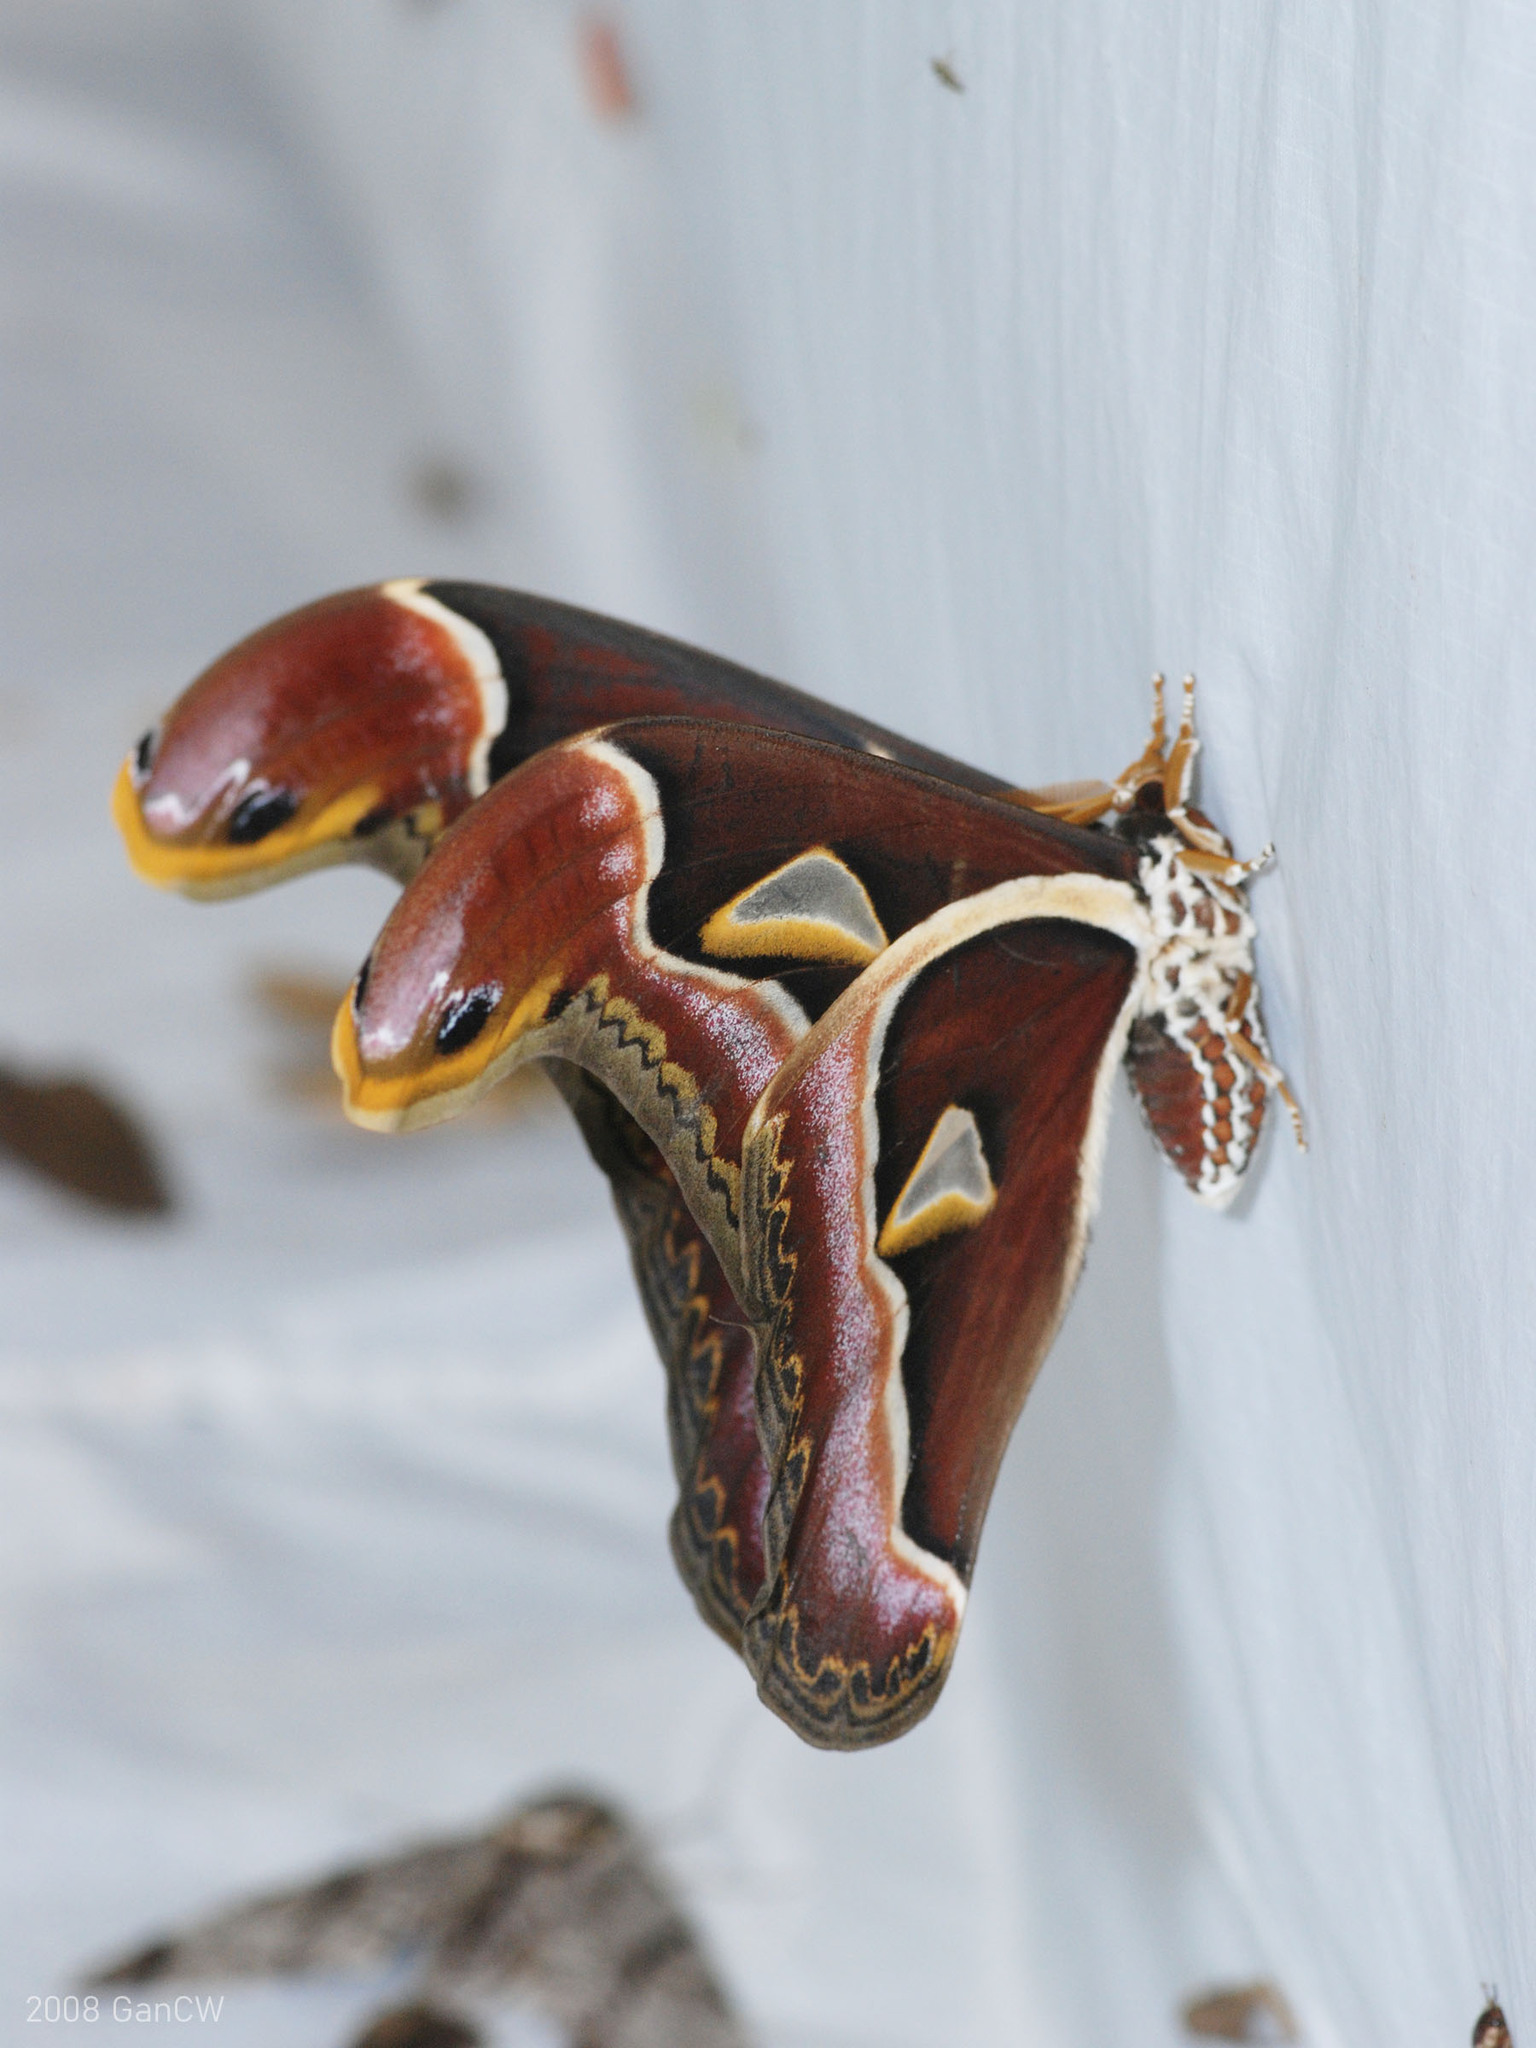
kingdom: Animalia
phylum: Arthropoda
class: Insecta
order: Lepidoptera
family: Saturniidae
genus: Archaeoattacus
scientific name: Archaeoattacus edwardsii
